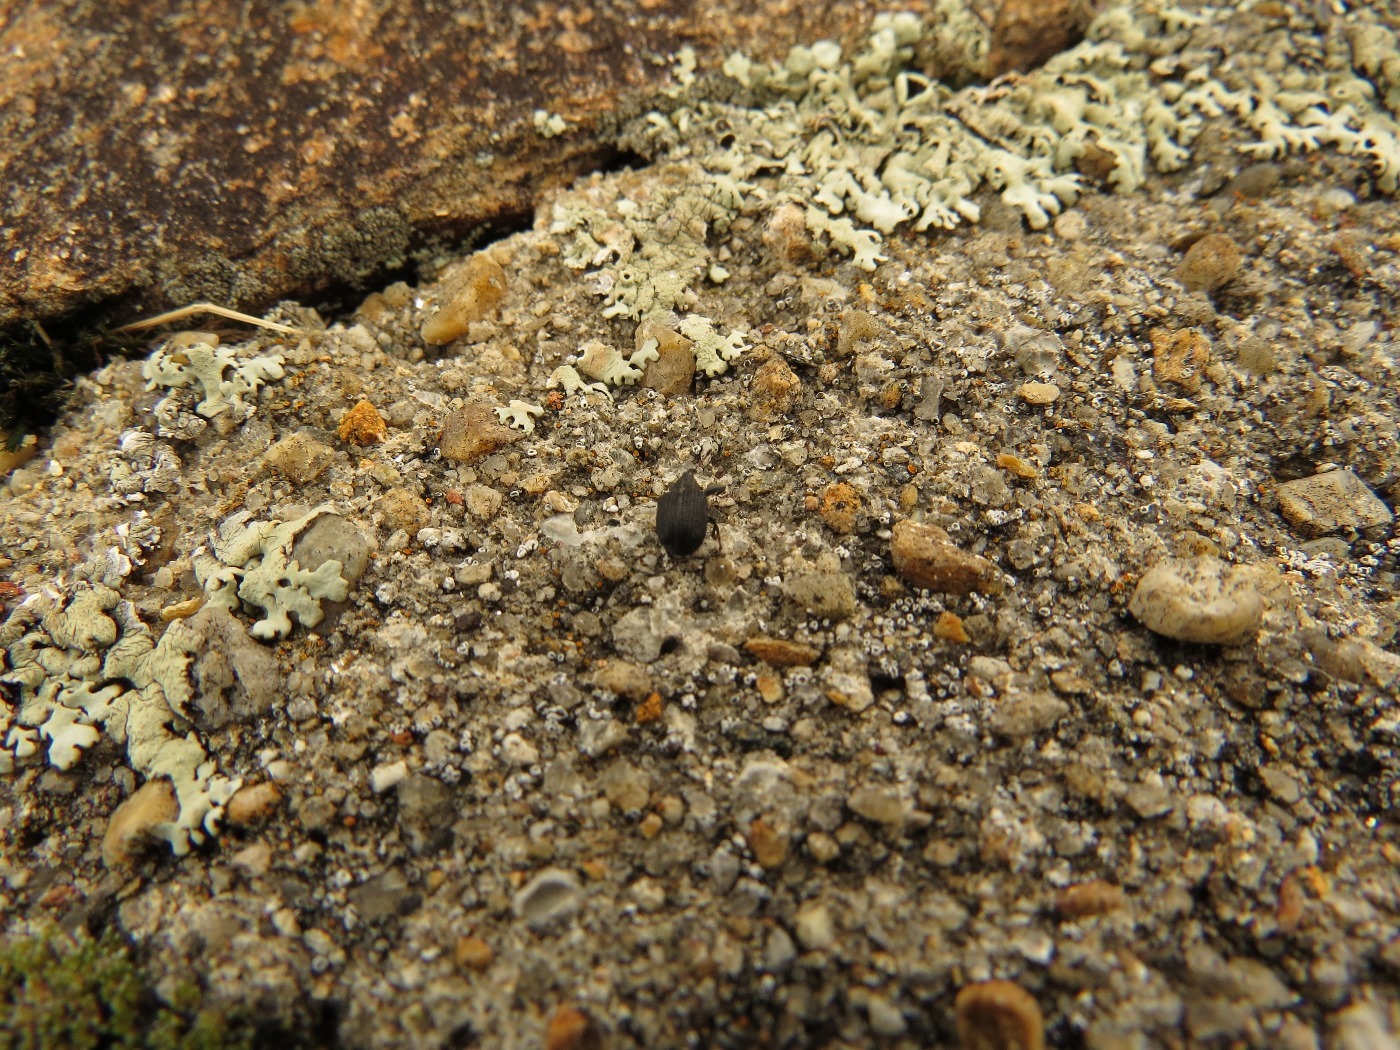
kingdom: Animalia
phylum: Arthropoda
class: Insecta
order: Coleoptera
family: Curculionidae
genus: Odontopus
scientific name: Odontopus calceatus
